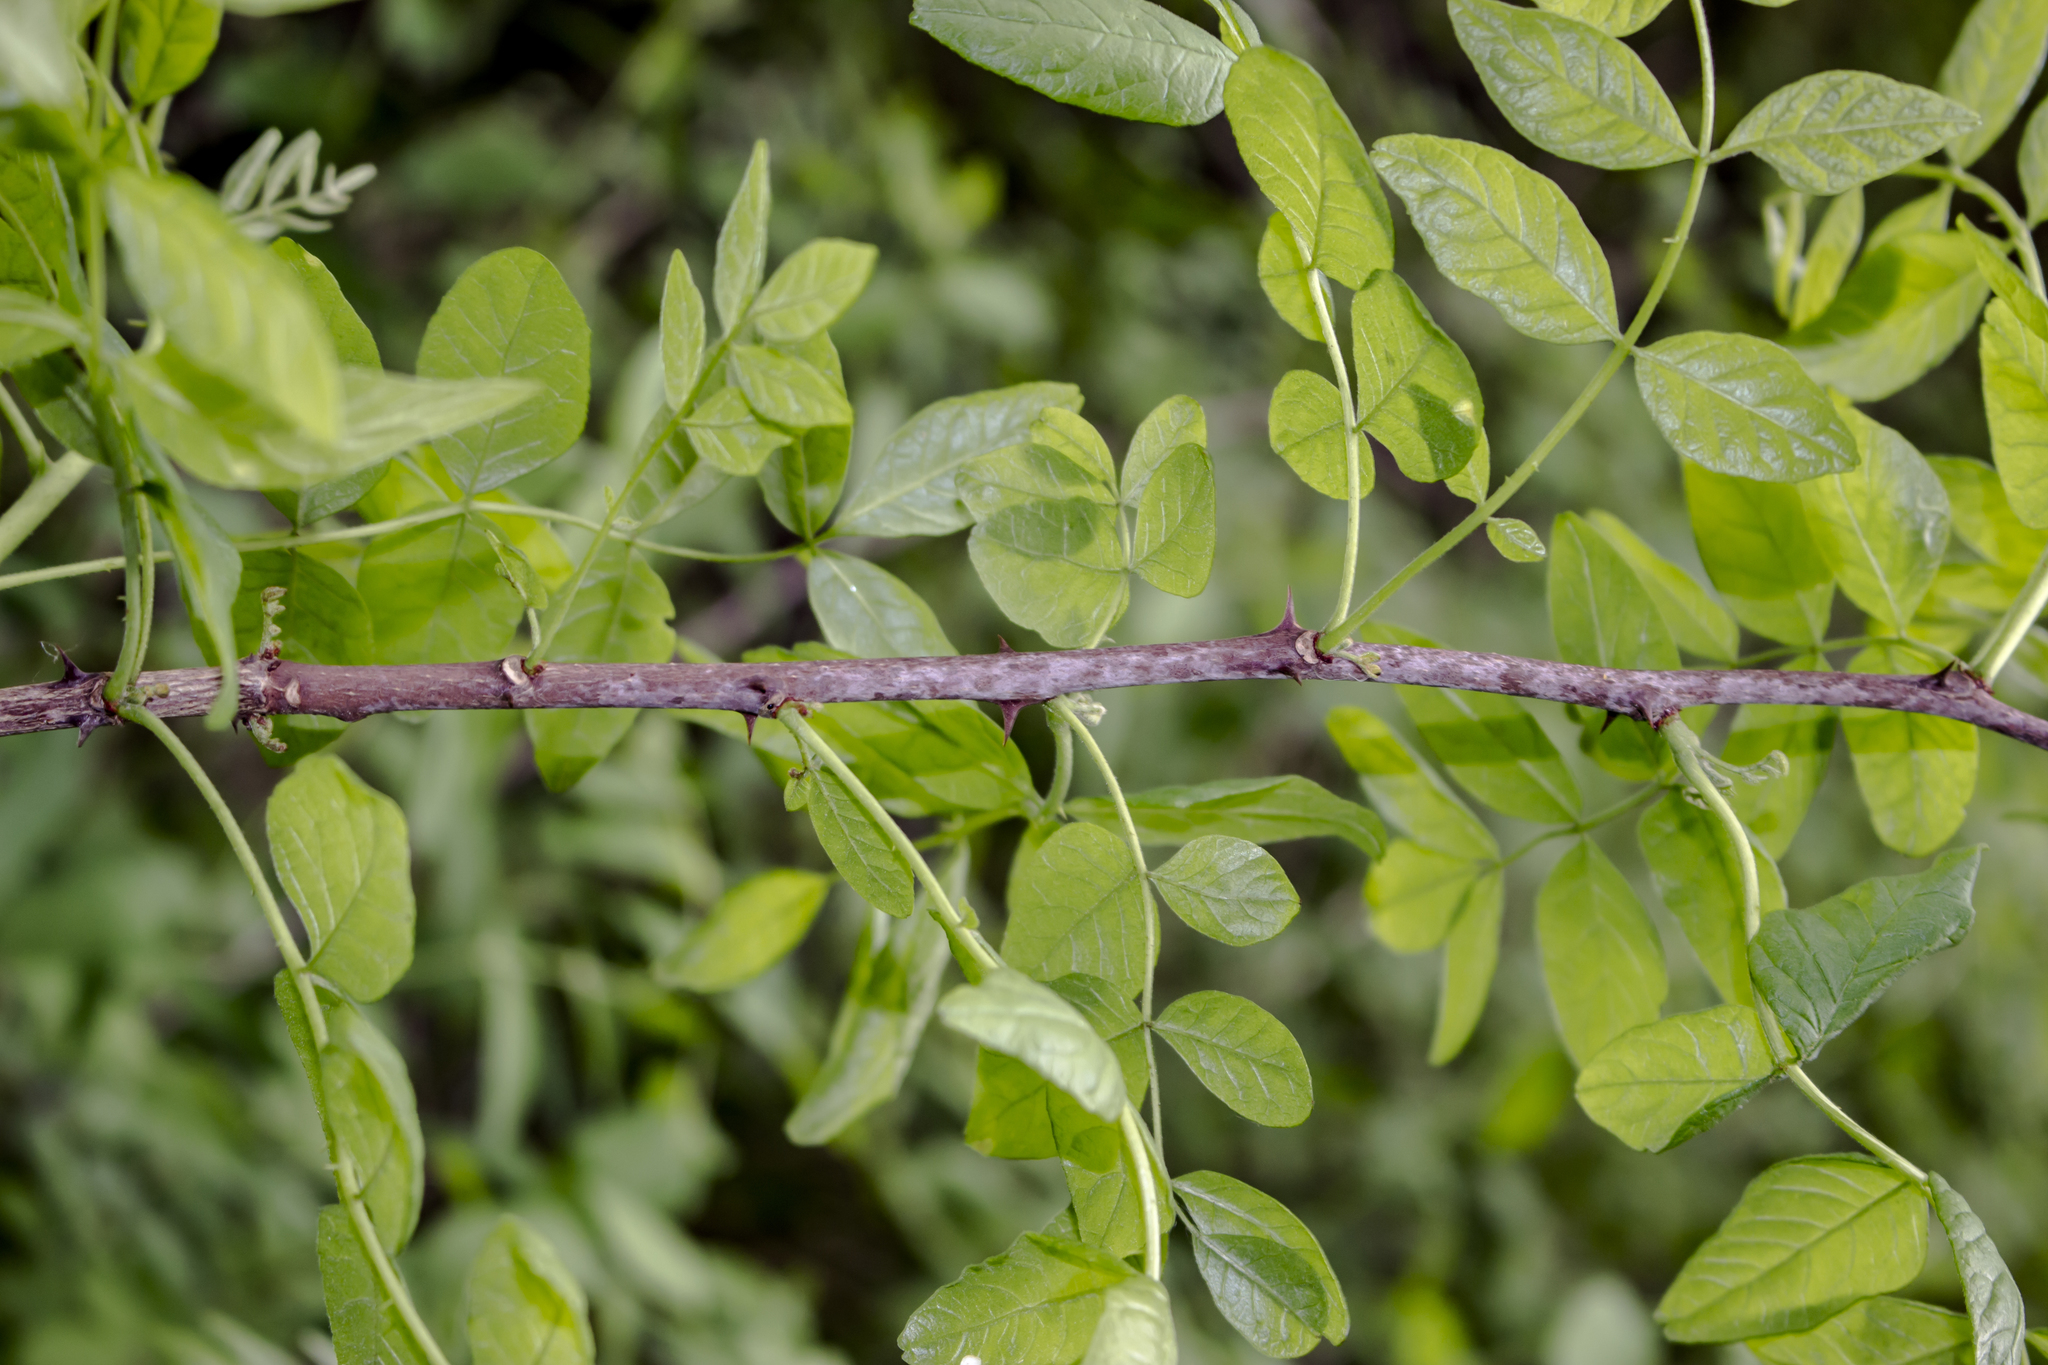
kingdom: Plantae
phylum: Tracheophyta
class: Magnoliopsida
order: Sapindales
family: Rutaceae
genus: Zanthoxylum
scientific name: Zanthoxylum americanum
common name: Northern prickly-ash
